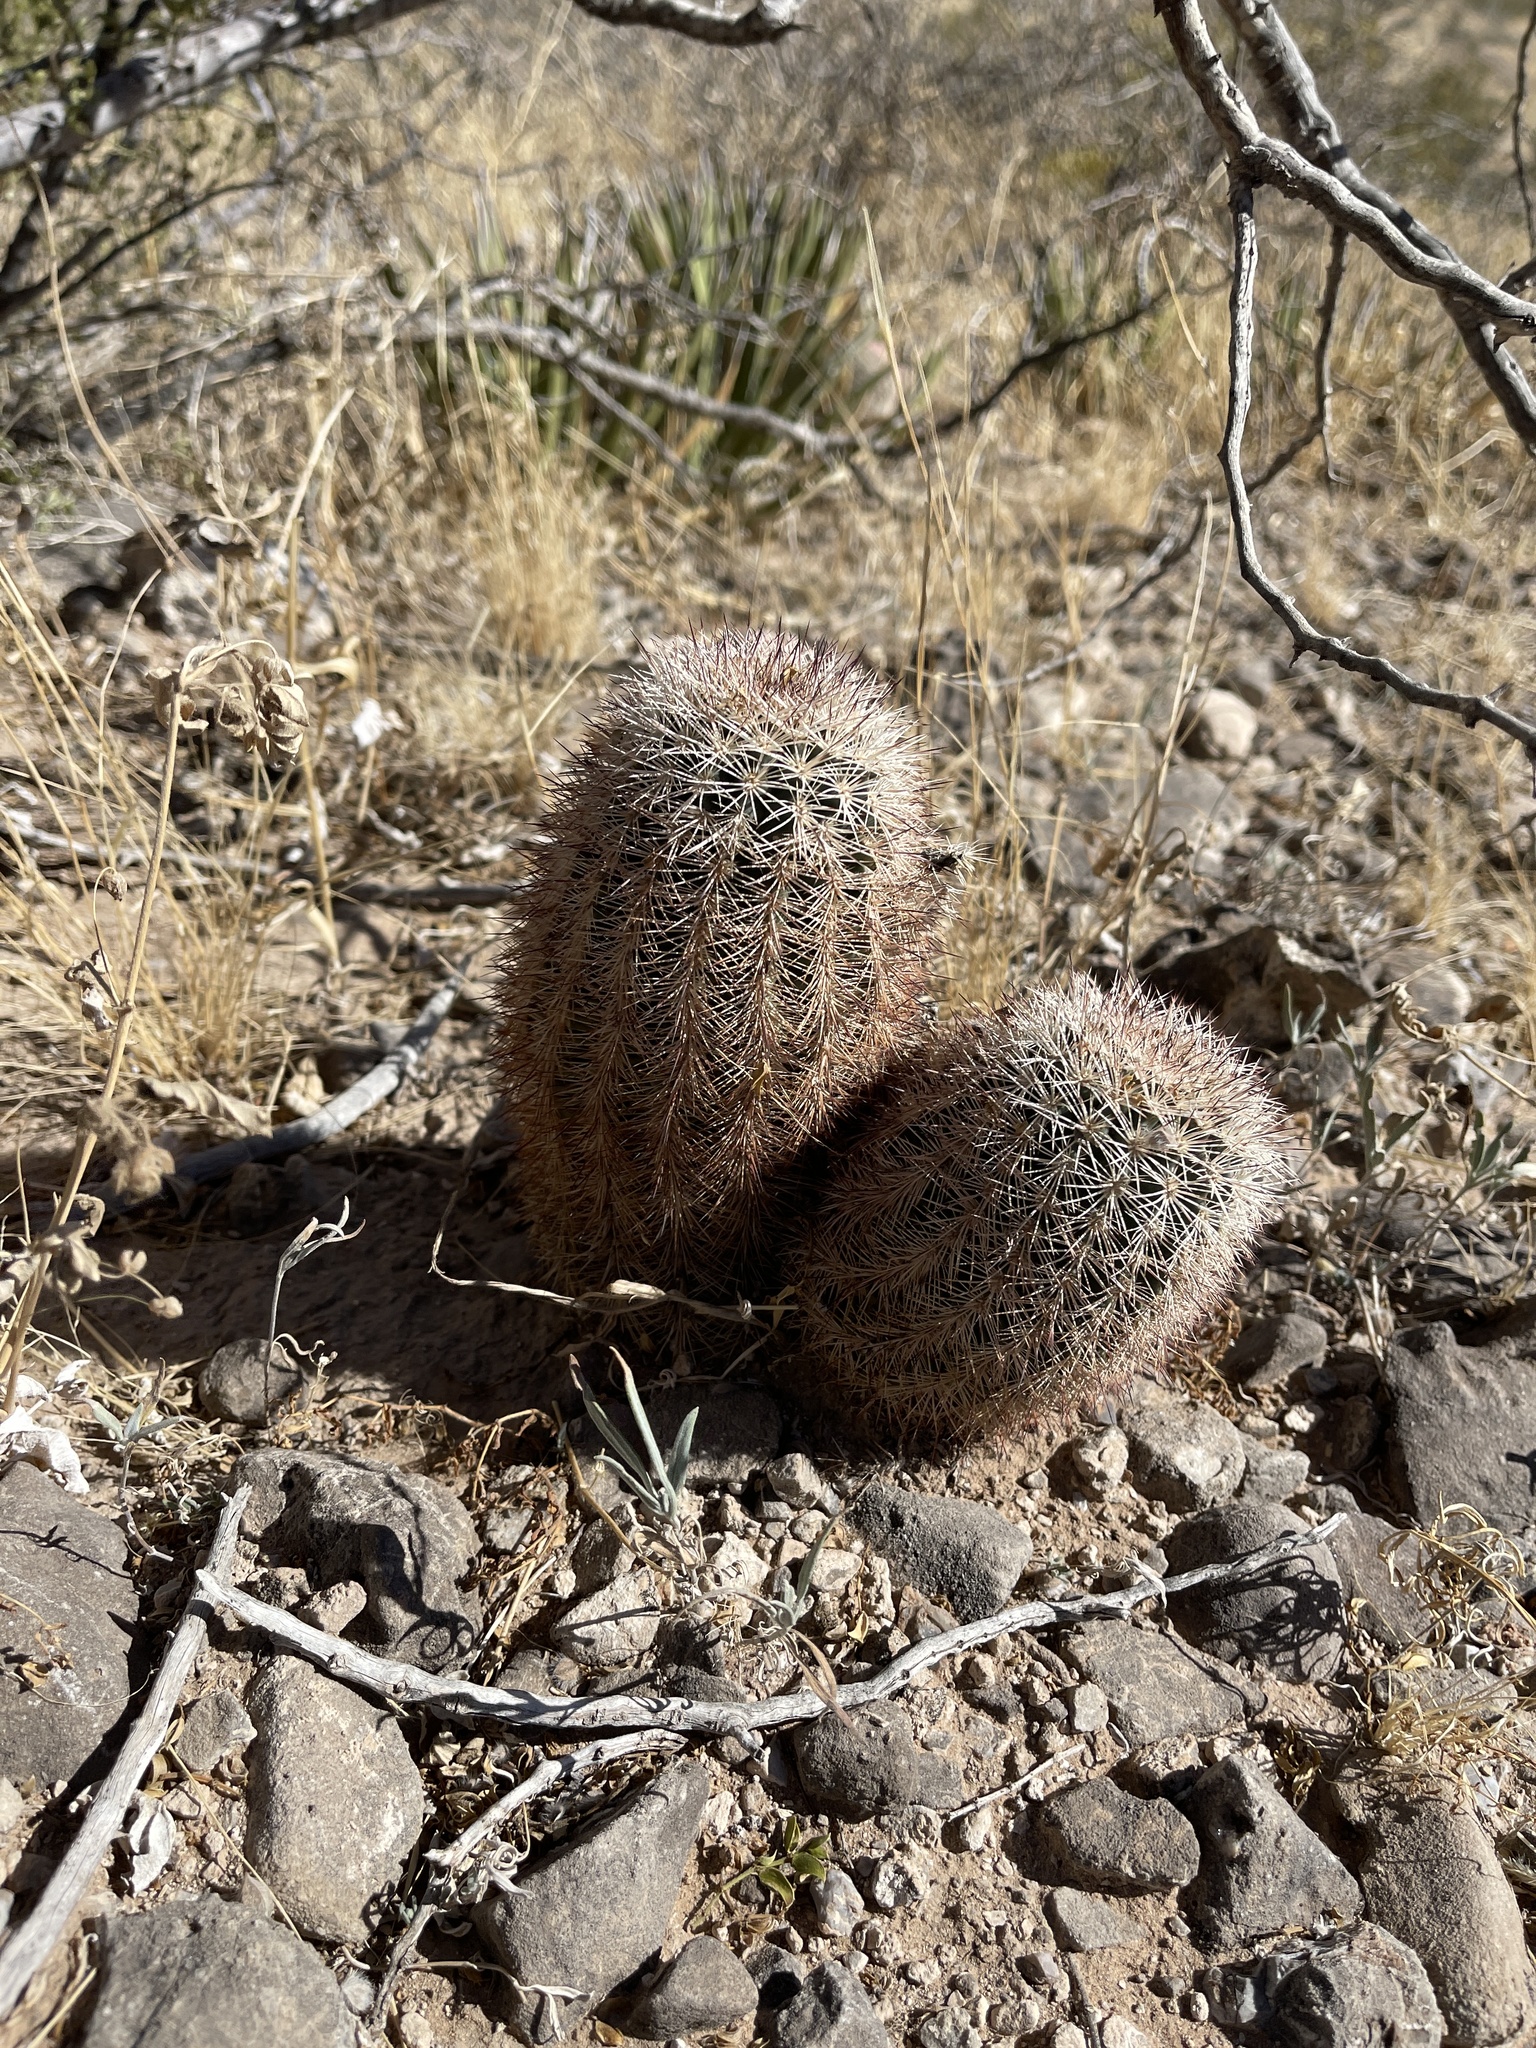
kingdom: Plantae
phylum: Tracheophyta
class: Magnoliopsida
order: Caryophyllales
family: Cactaceae
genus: Echinocereus
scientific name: Echinocereus dasyacanthus
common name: Spiny hedgehog cactus
